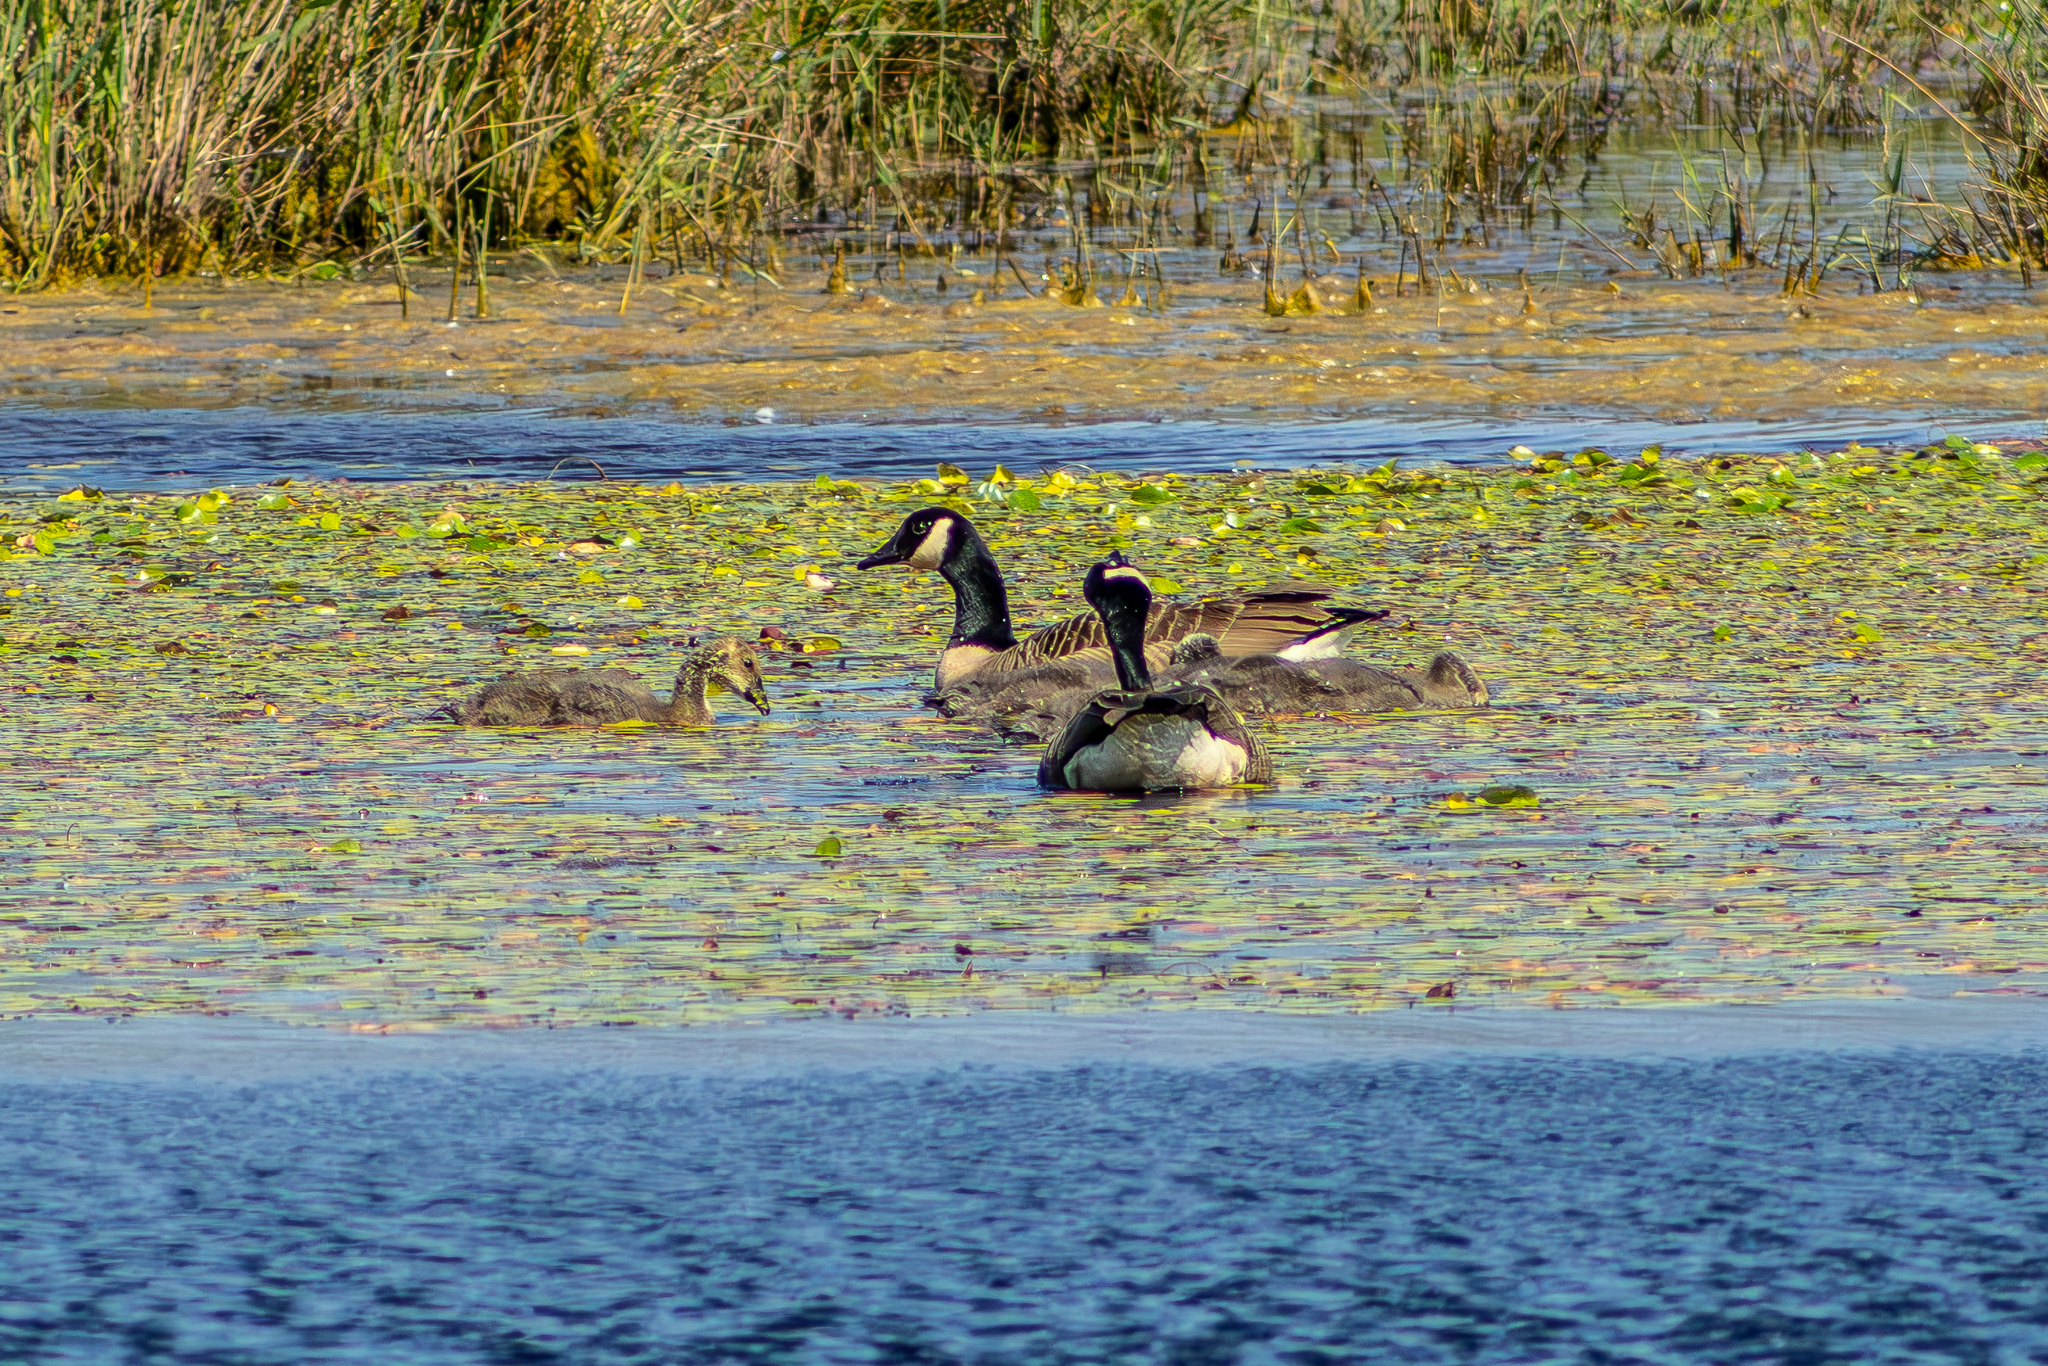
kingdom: Animalia
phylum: Chordata
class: Aves
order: Anseriformes
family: Anatidae
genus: Branta
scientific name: Branta canadensis
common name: Canada goose
